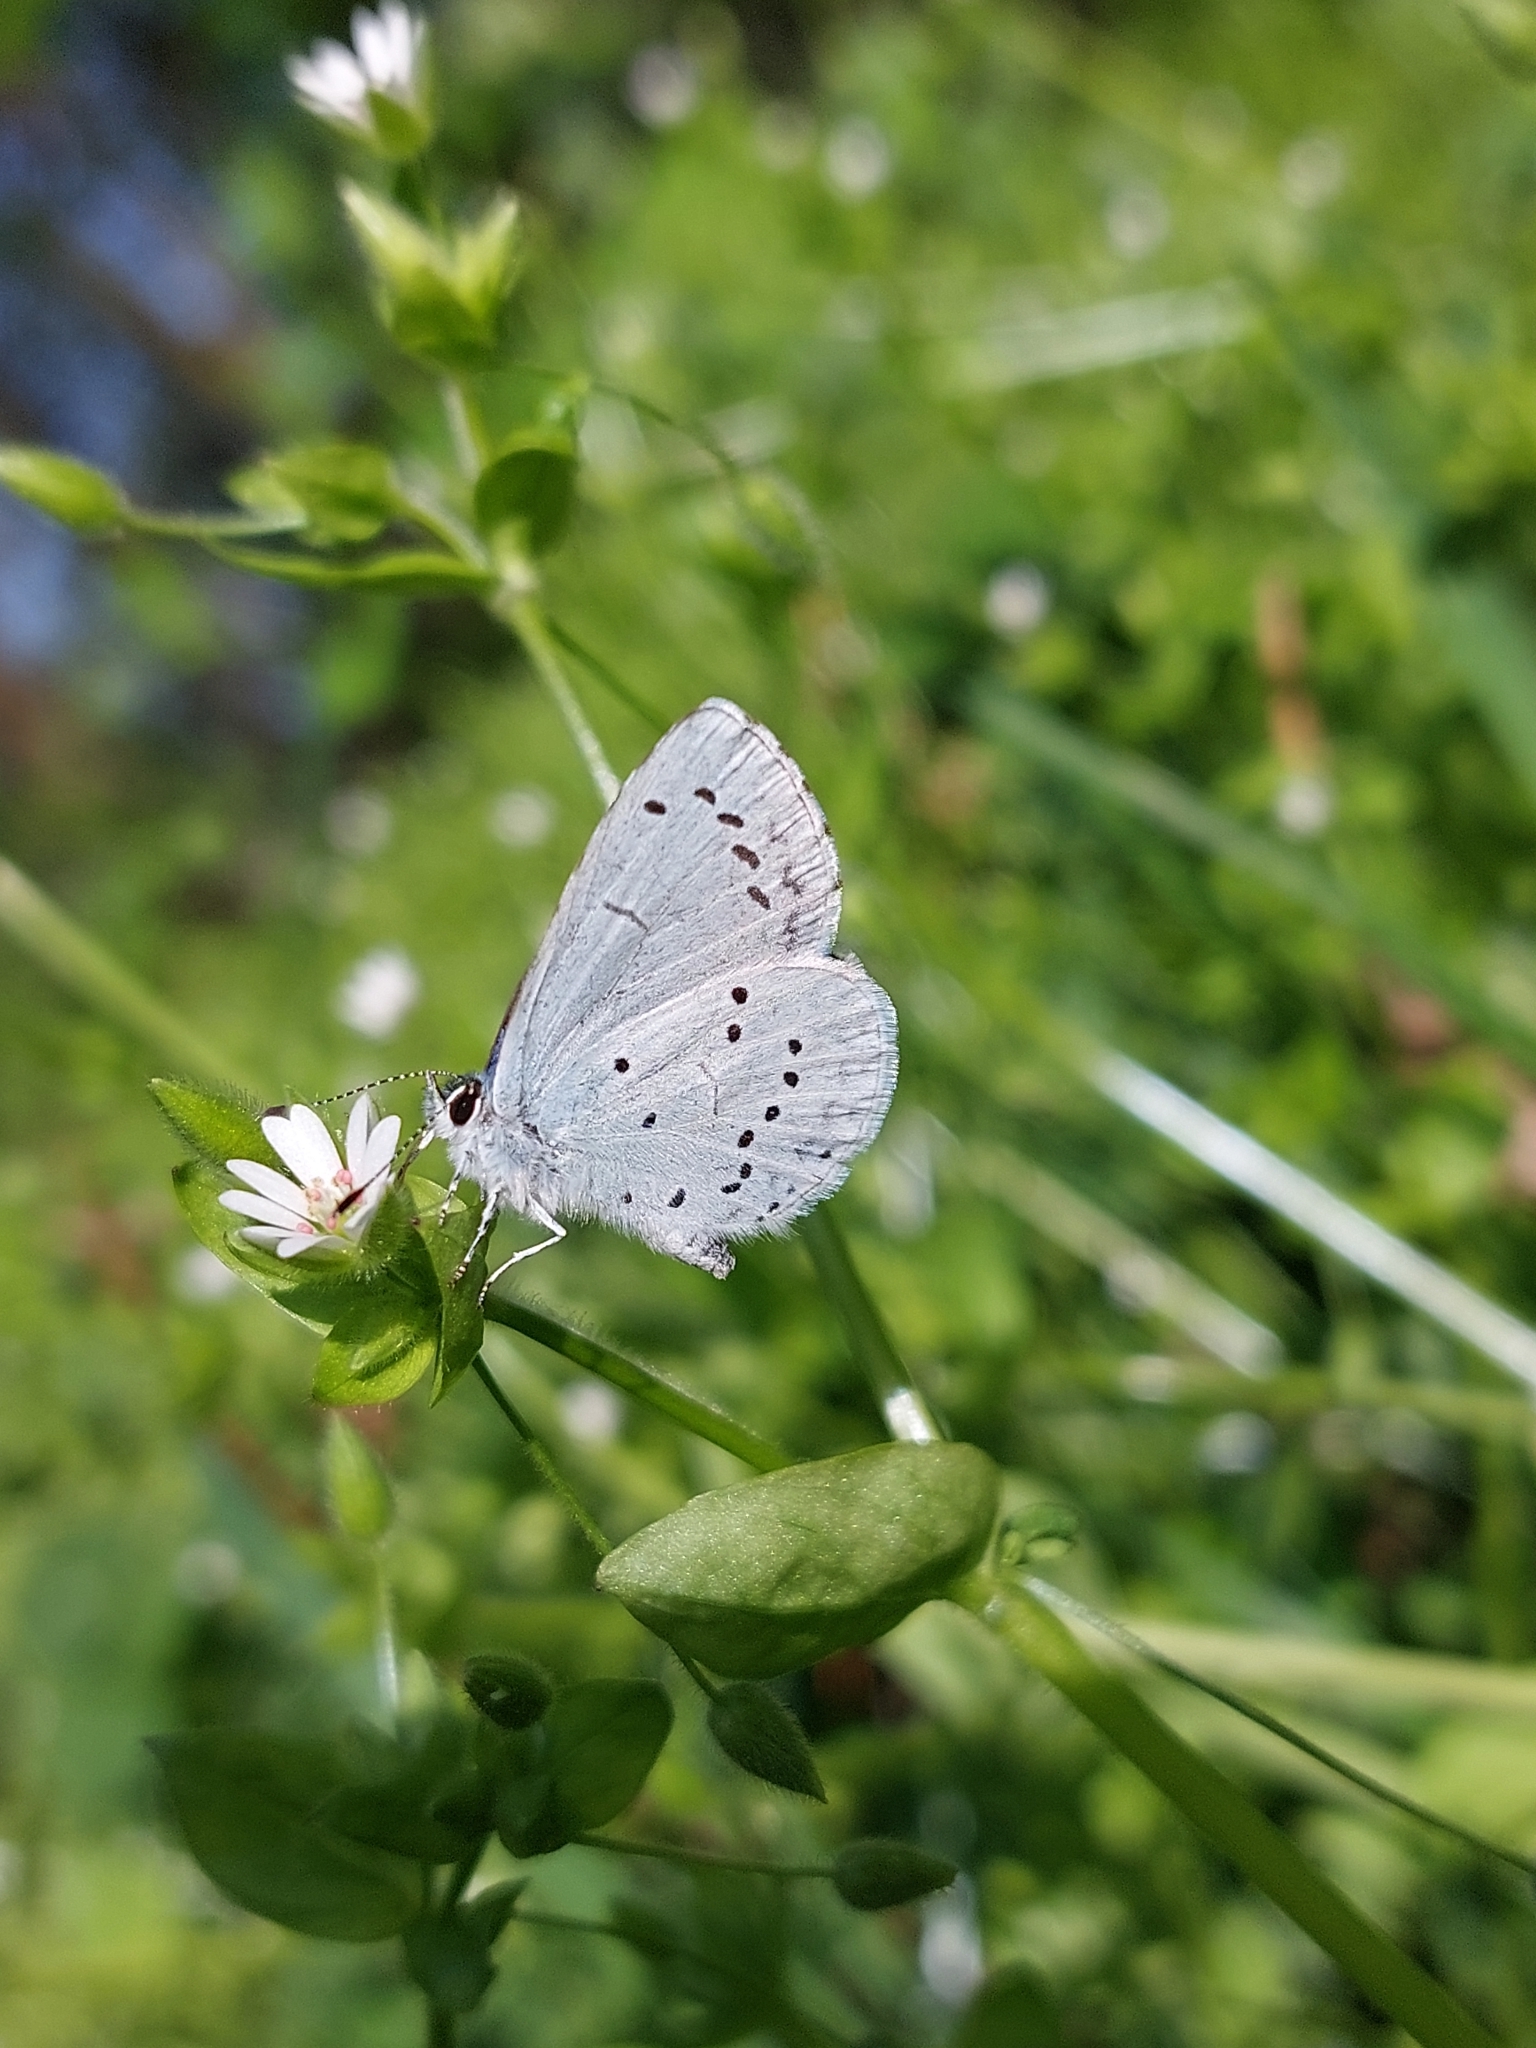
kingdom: Animalia
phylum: Arthropoda
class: Insecta
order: Lepidoptera
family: Lycaenidae
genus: Celastrina
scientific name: Celastrina argiolus
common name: Holly blue
